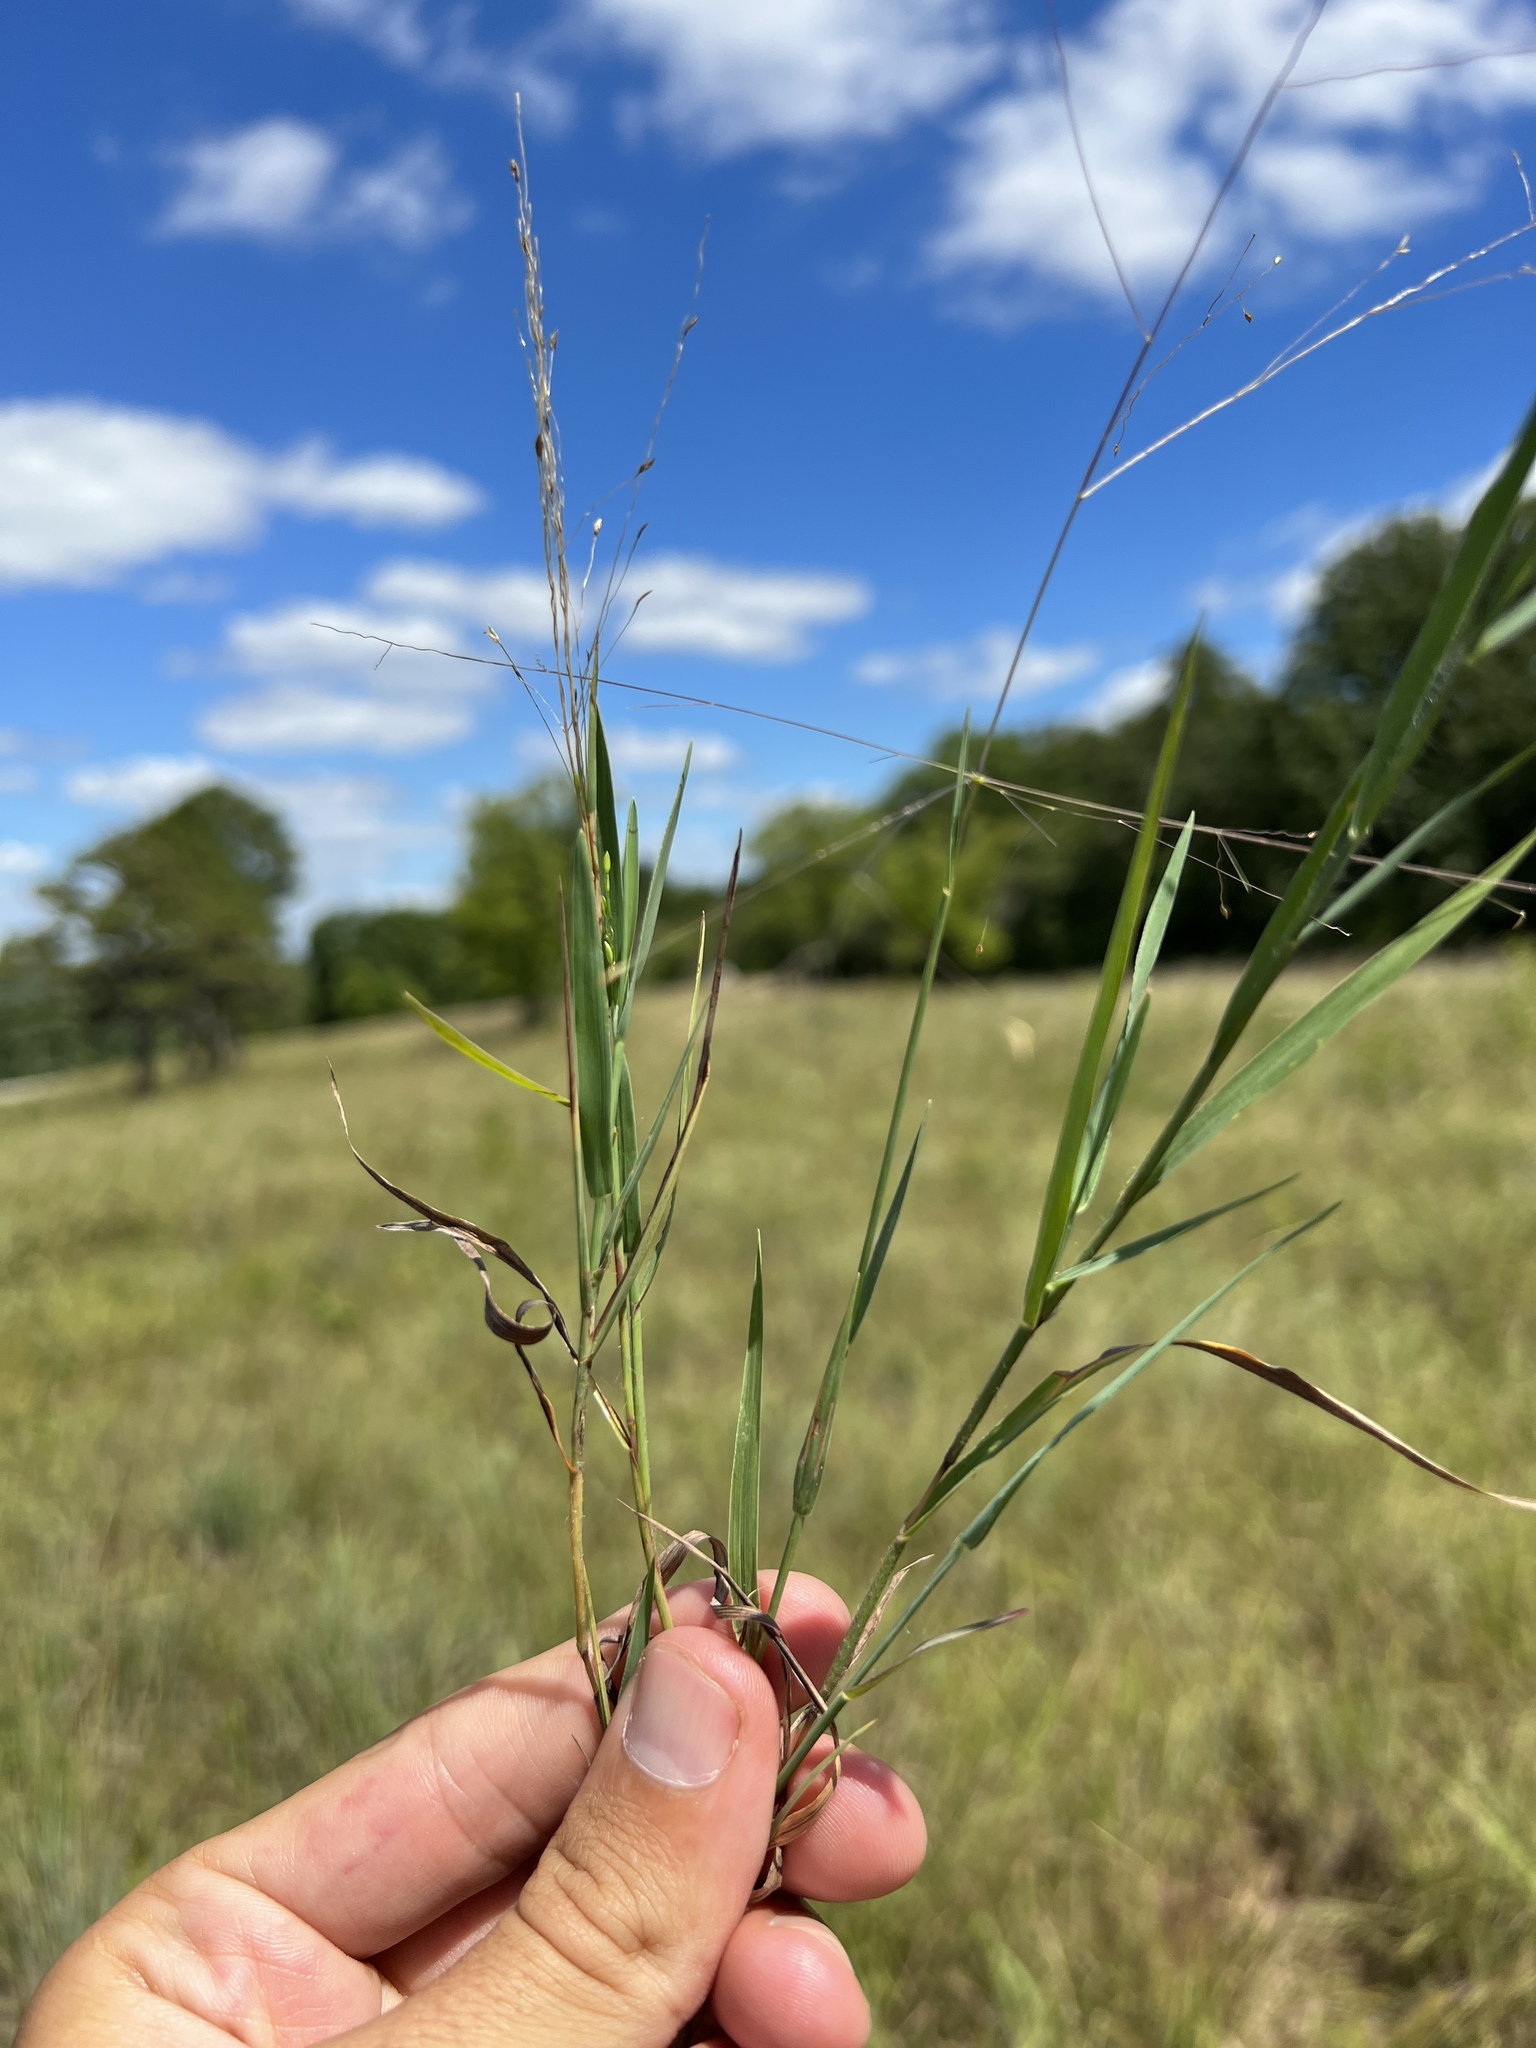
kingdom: Plantae
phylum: Tracheophyta
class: Liliopsida
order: Poales
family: Poaceae
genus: Digitaria
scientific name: Digitaria cognata
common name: Fall witchgrass
